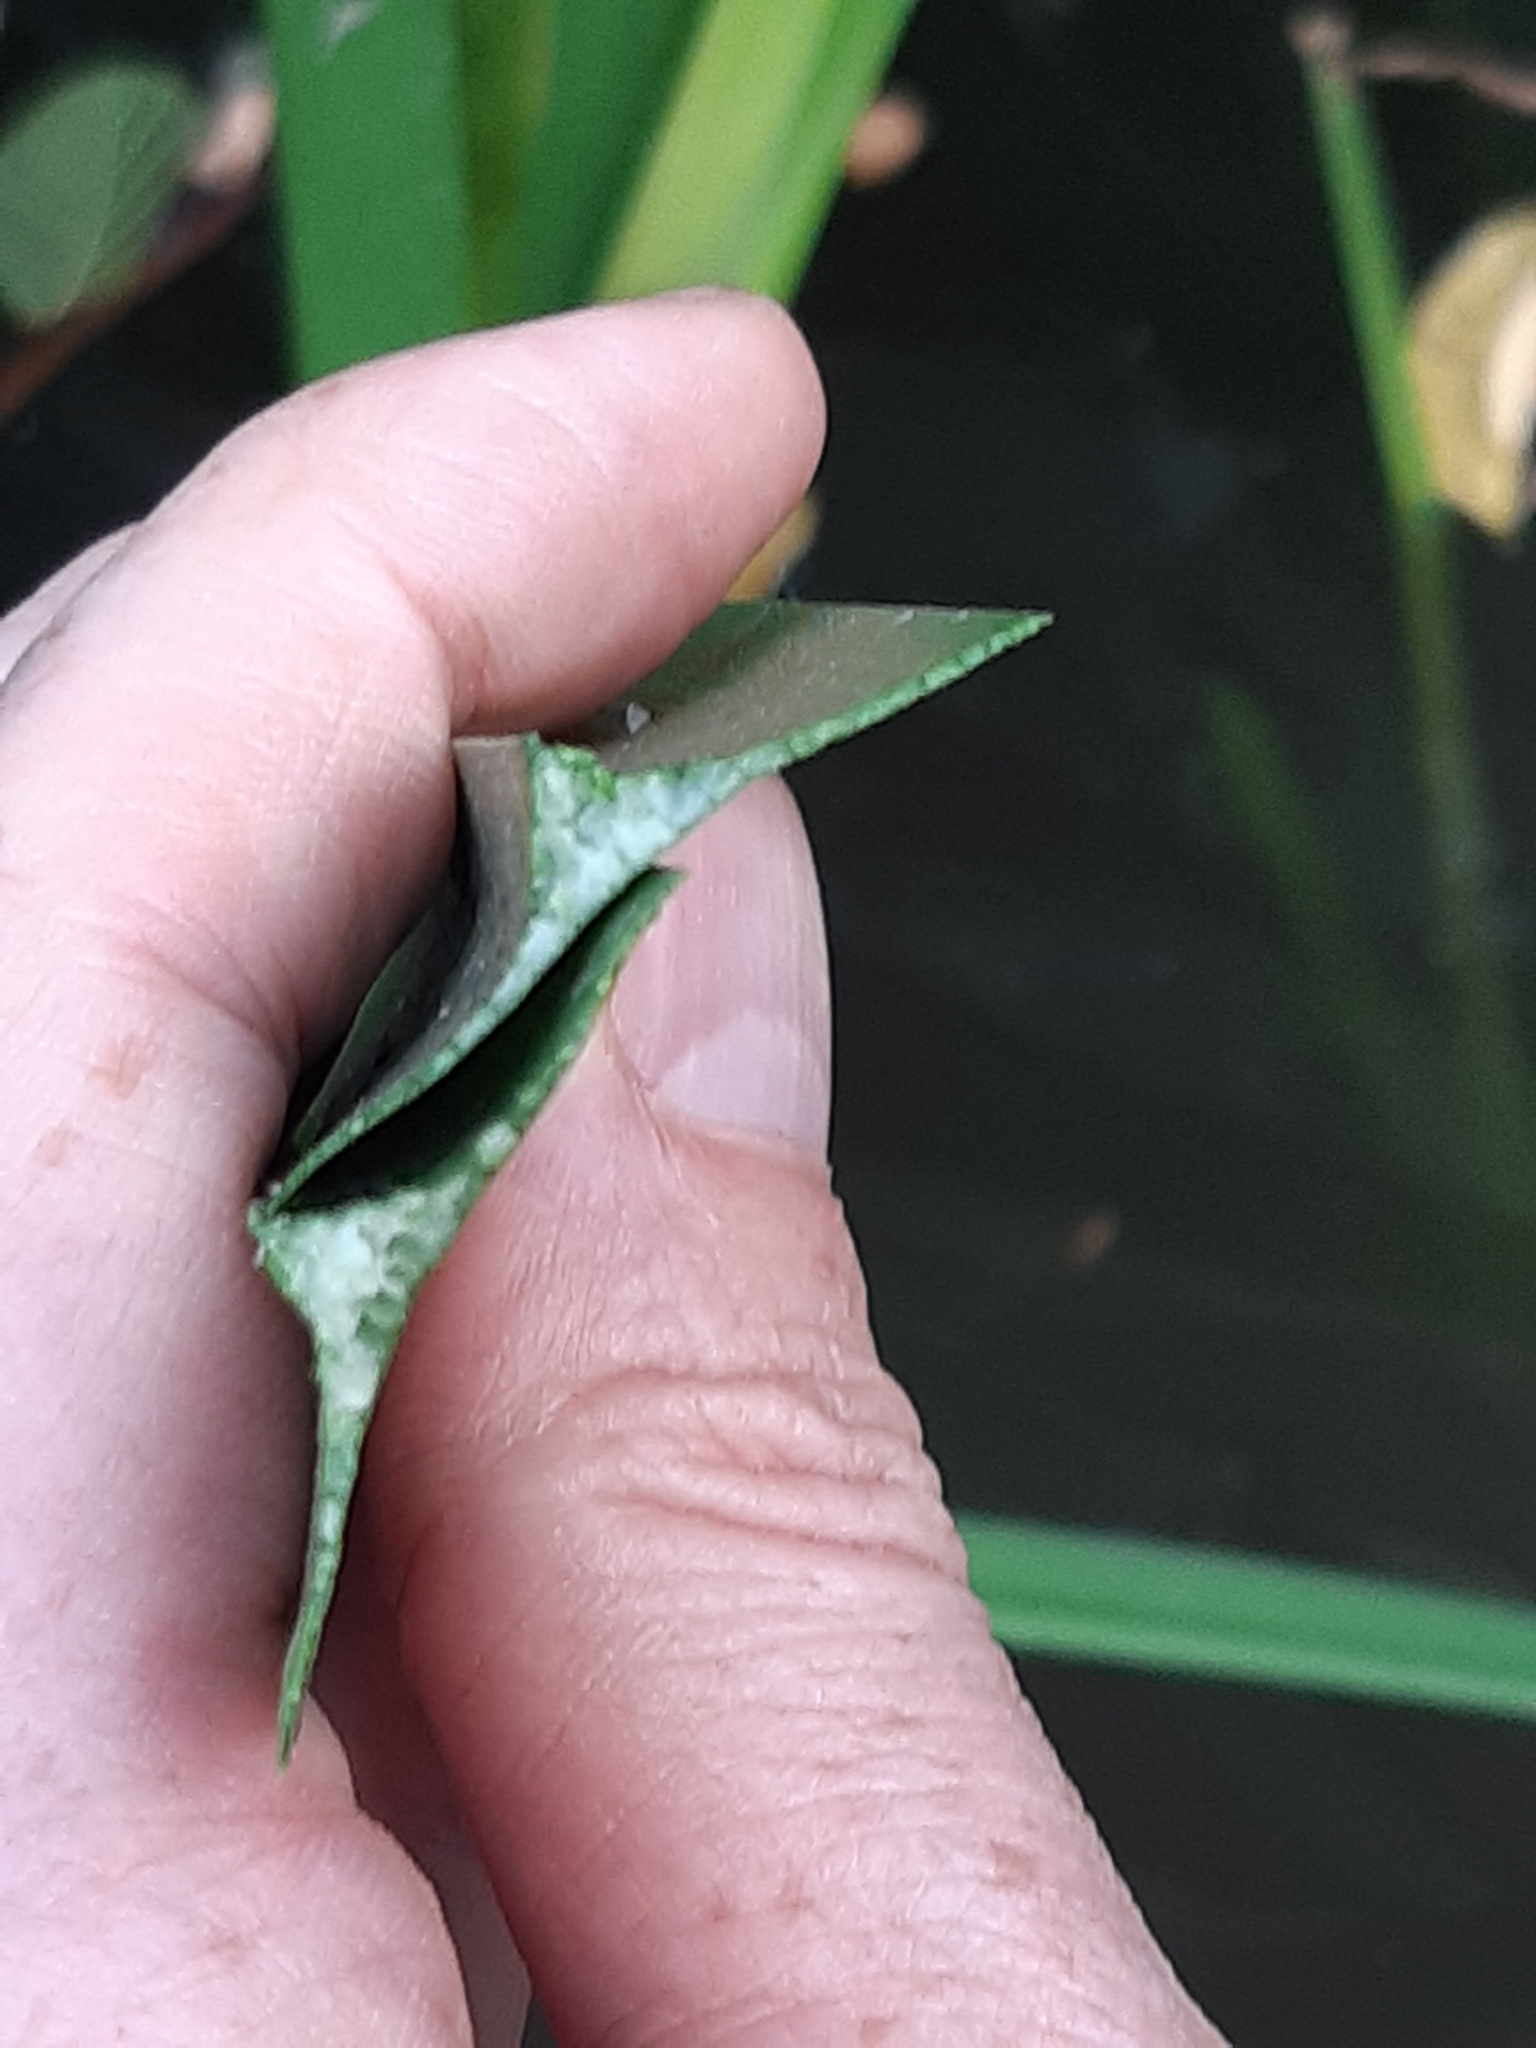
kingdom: Plantae
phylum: Tracheophyta
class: Liliopsida
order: Poales
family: Typhaceae
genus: Sparganium
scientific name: Sparganium erectum
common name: Branched bur-reed
